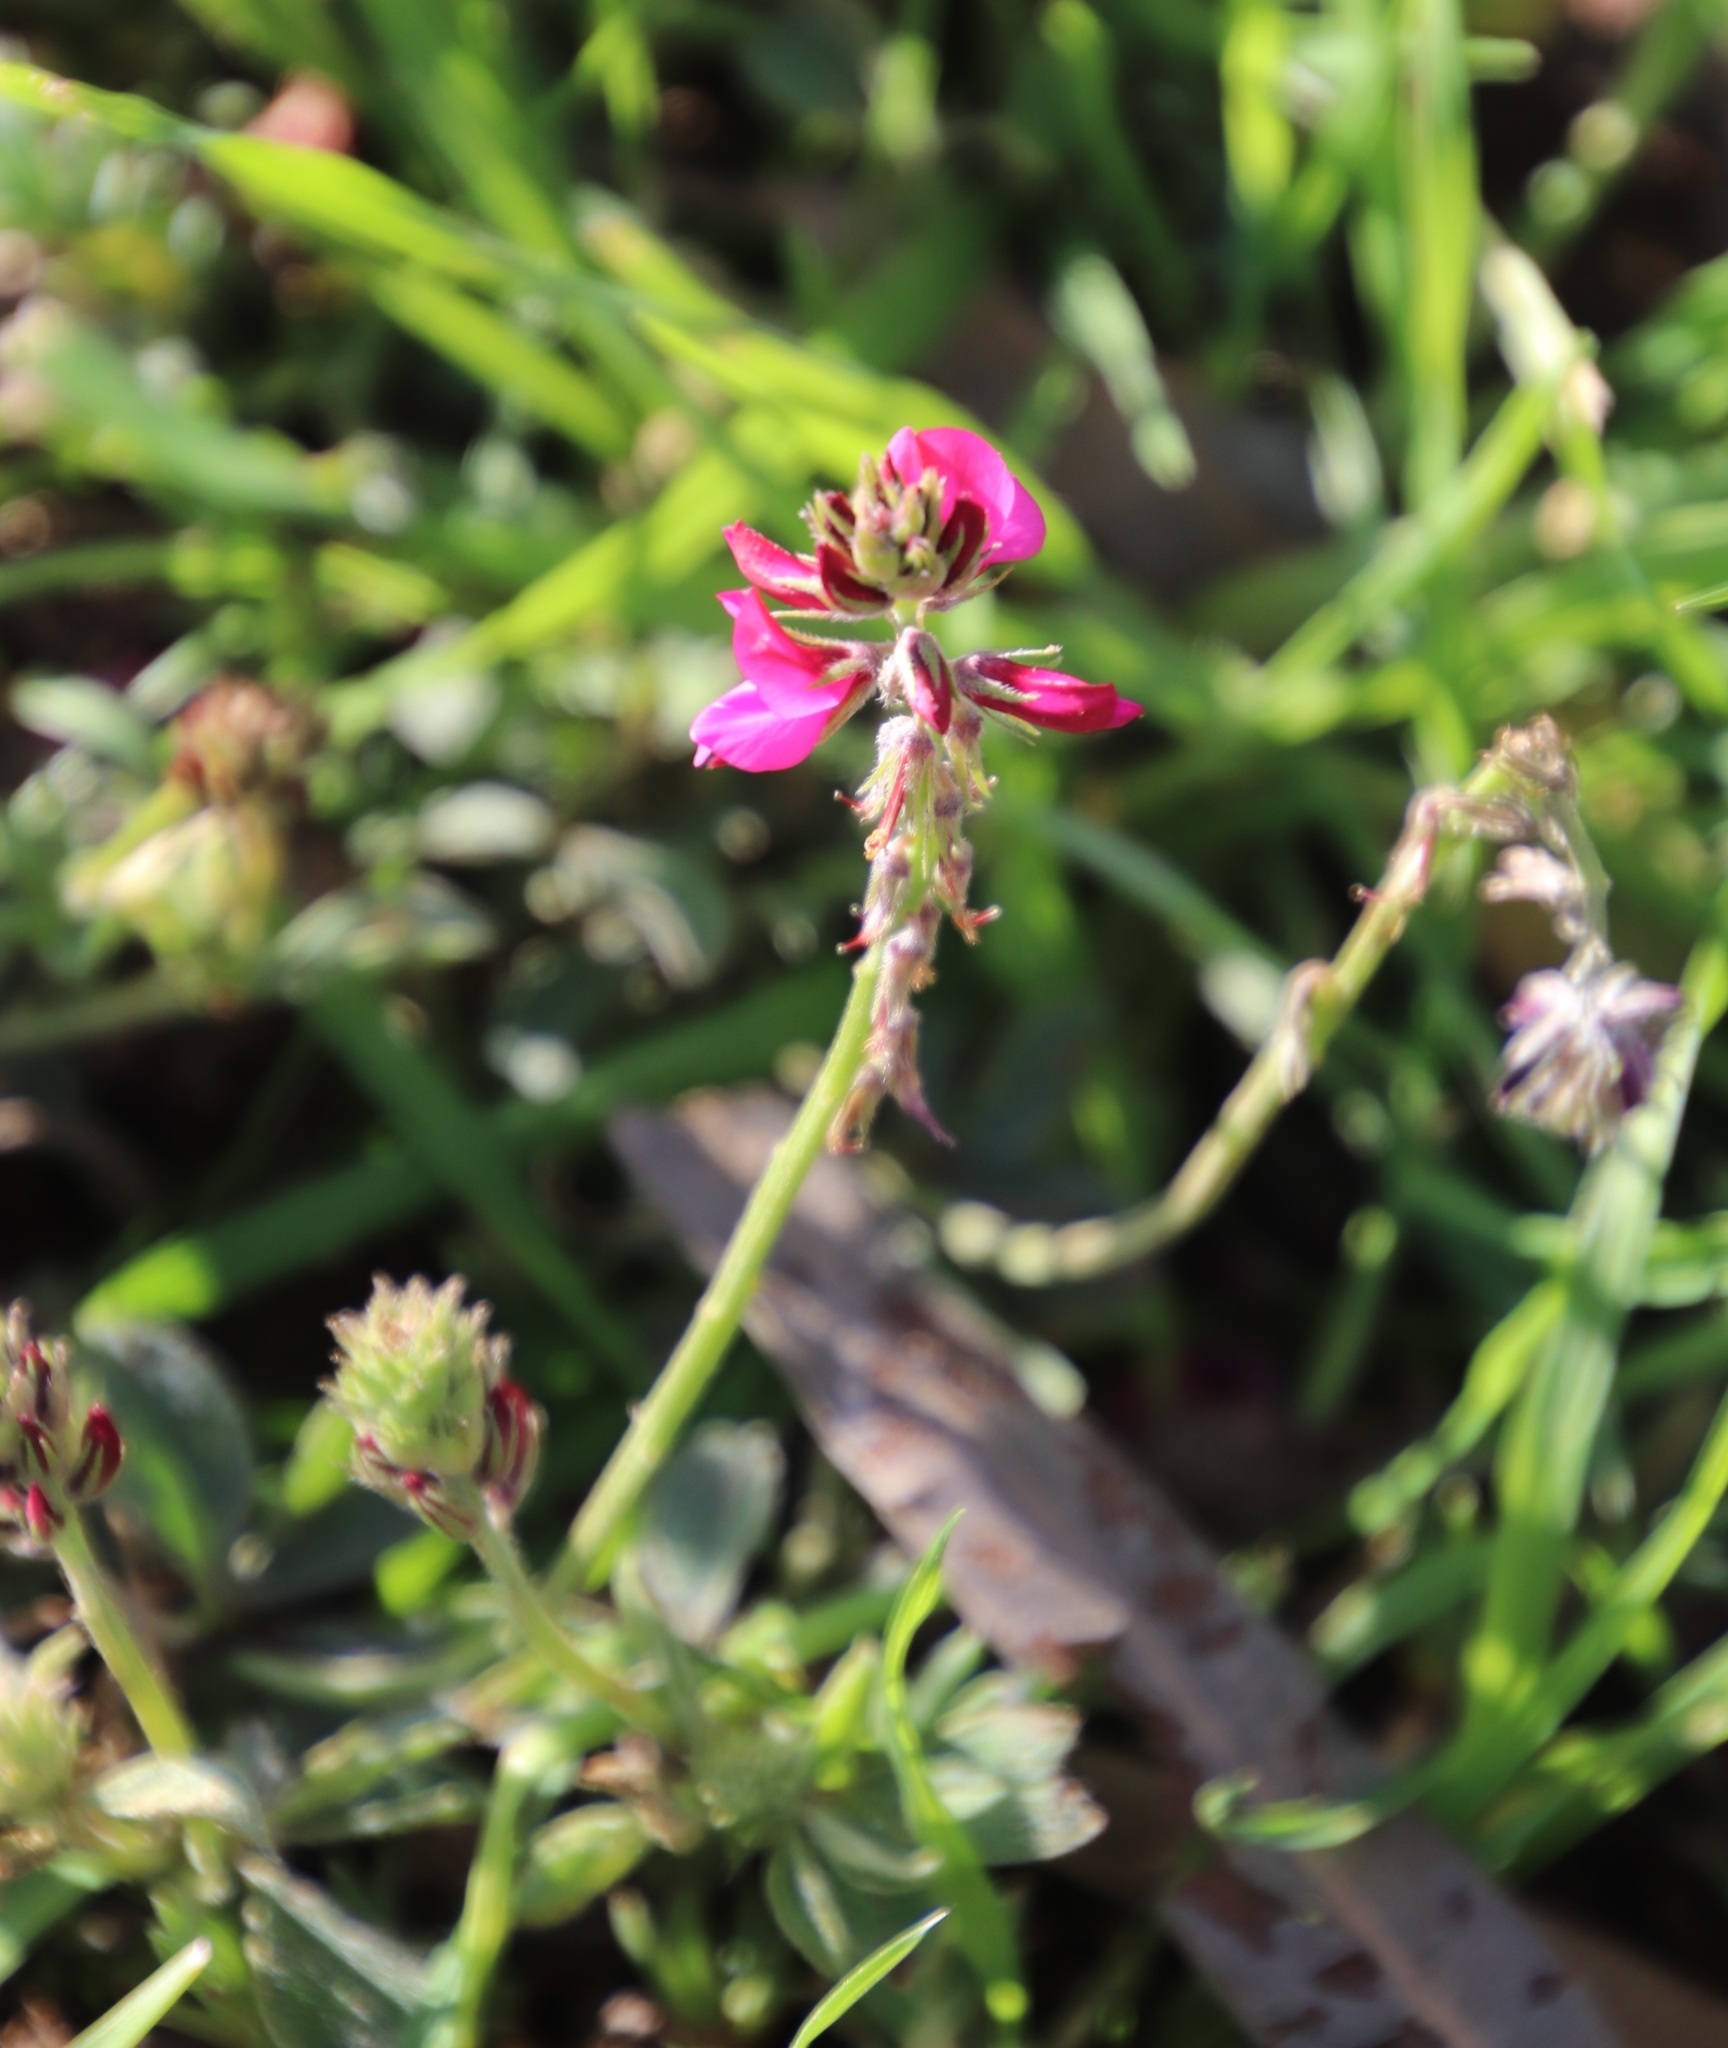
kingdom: Plantae
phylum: Tracheophyta
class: Magnoliopsida
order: Fabales
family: Fabaceae
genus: Indigofera
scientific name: Indigofera incana
